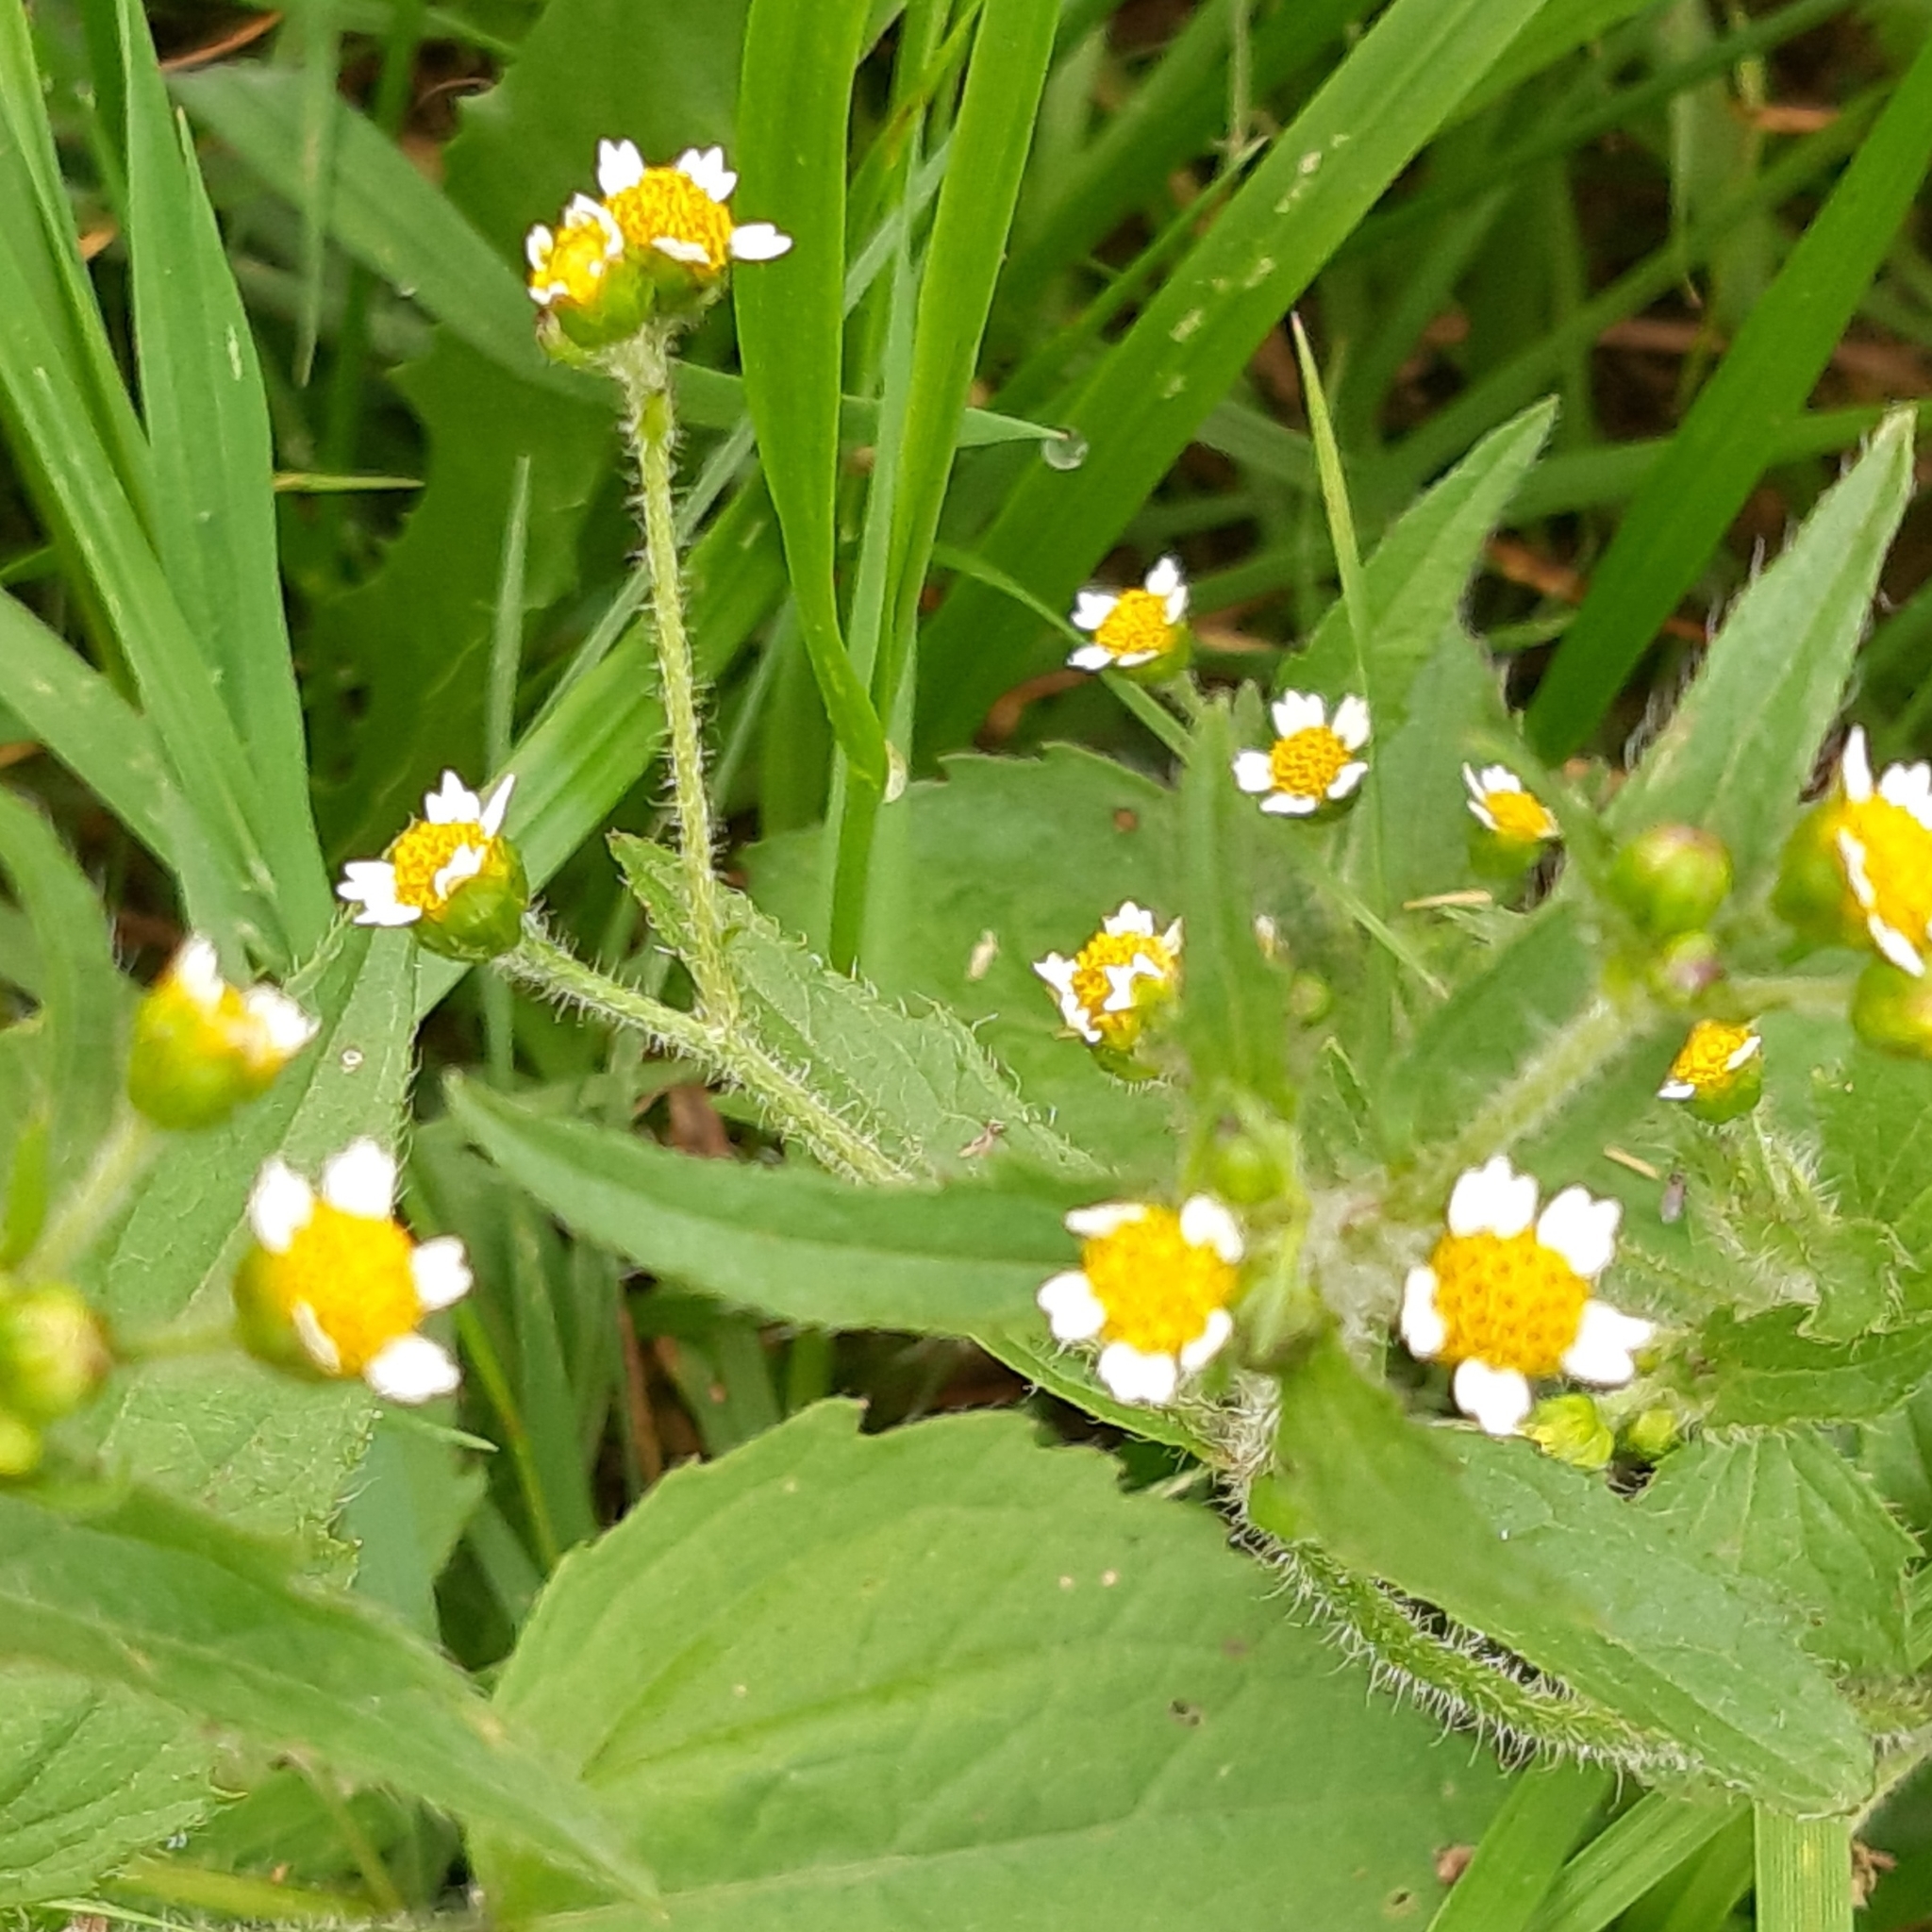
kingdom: Plantae
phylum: Tracheophyta
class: Magnoliopsida
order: Asterales
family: Asteraceae
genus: Galinsoga
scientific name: Galinsoga quadriradiata
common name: Shaggy soldier
